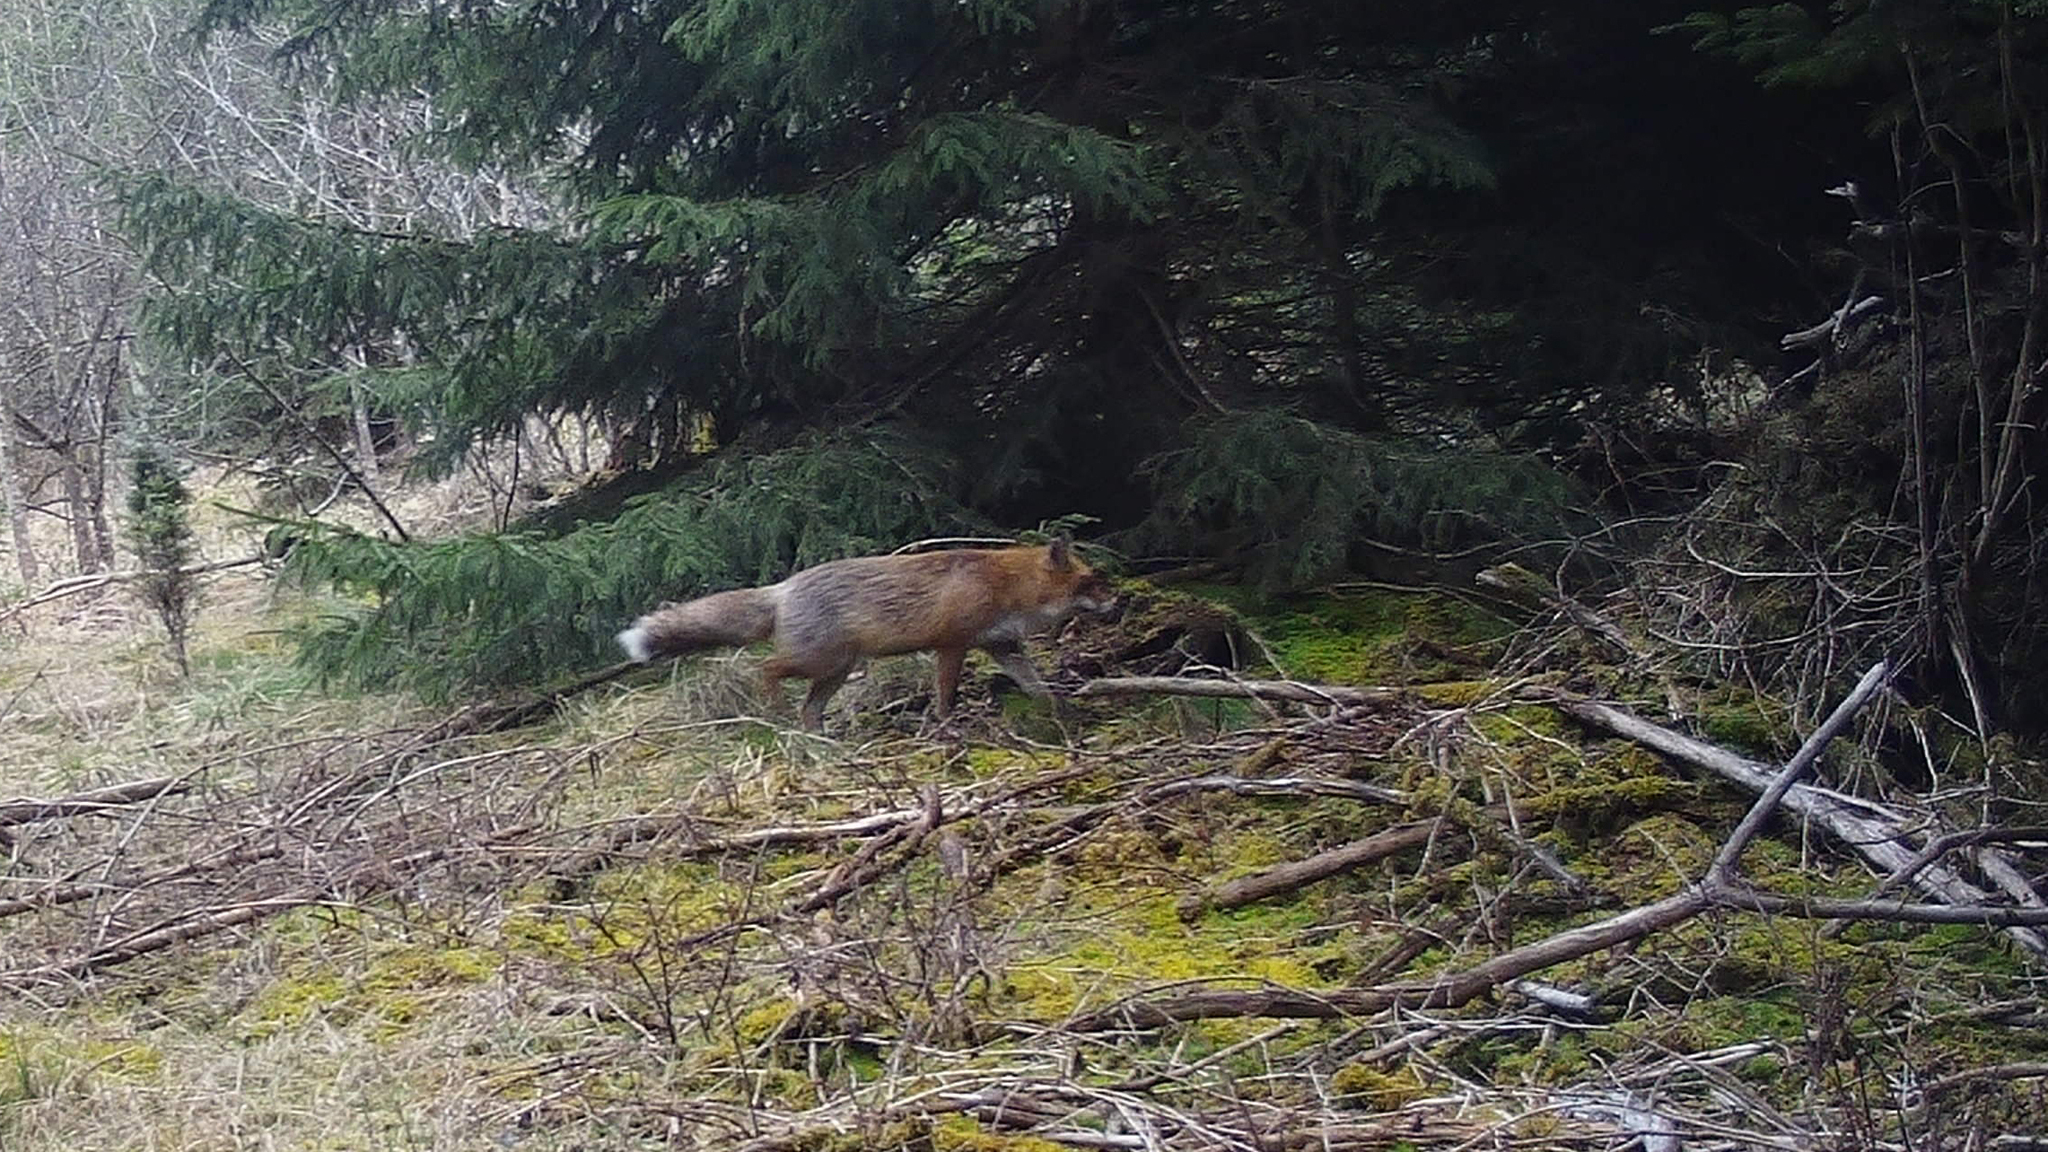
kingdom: Animalia
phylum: Chordata
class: Mammalia
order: Carnivora
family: Canidae
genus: Vulpes
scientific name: Vulpes vulpes
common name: Red fox
